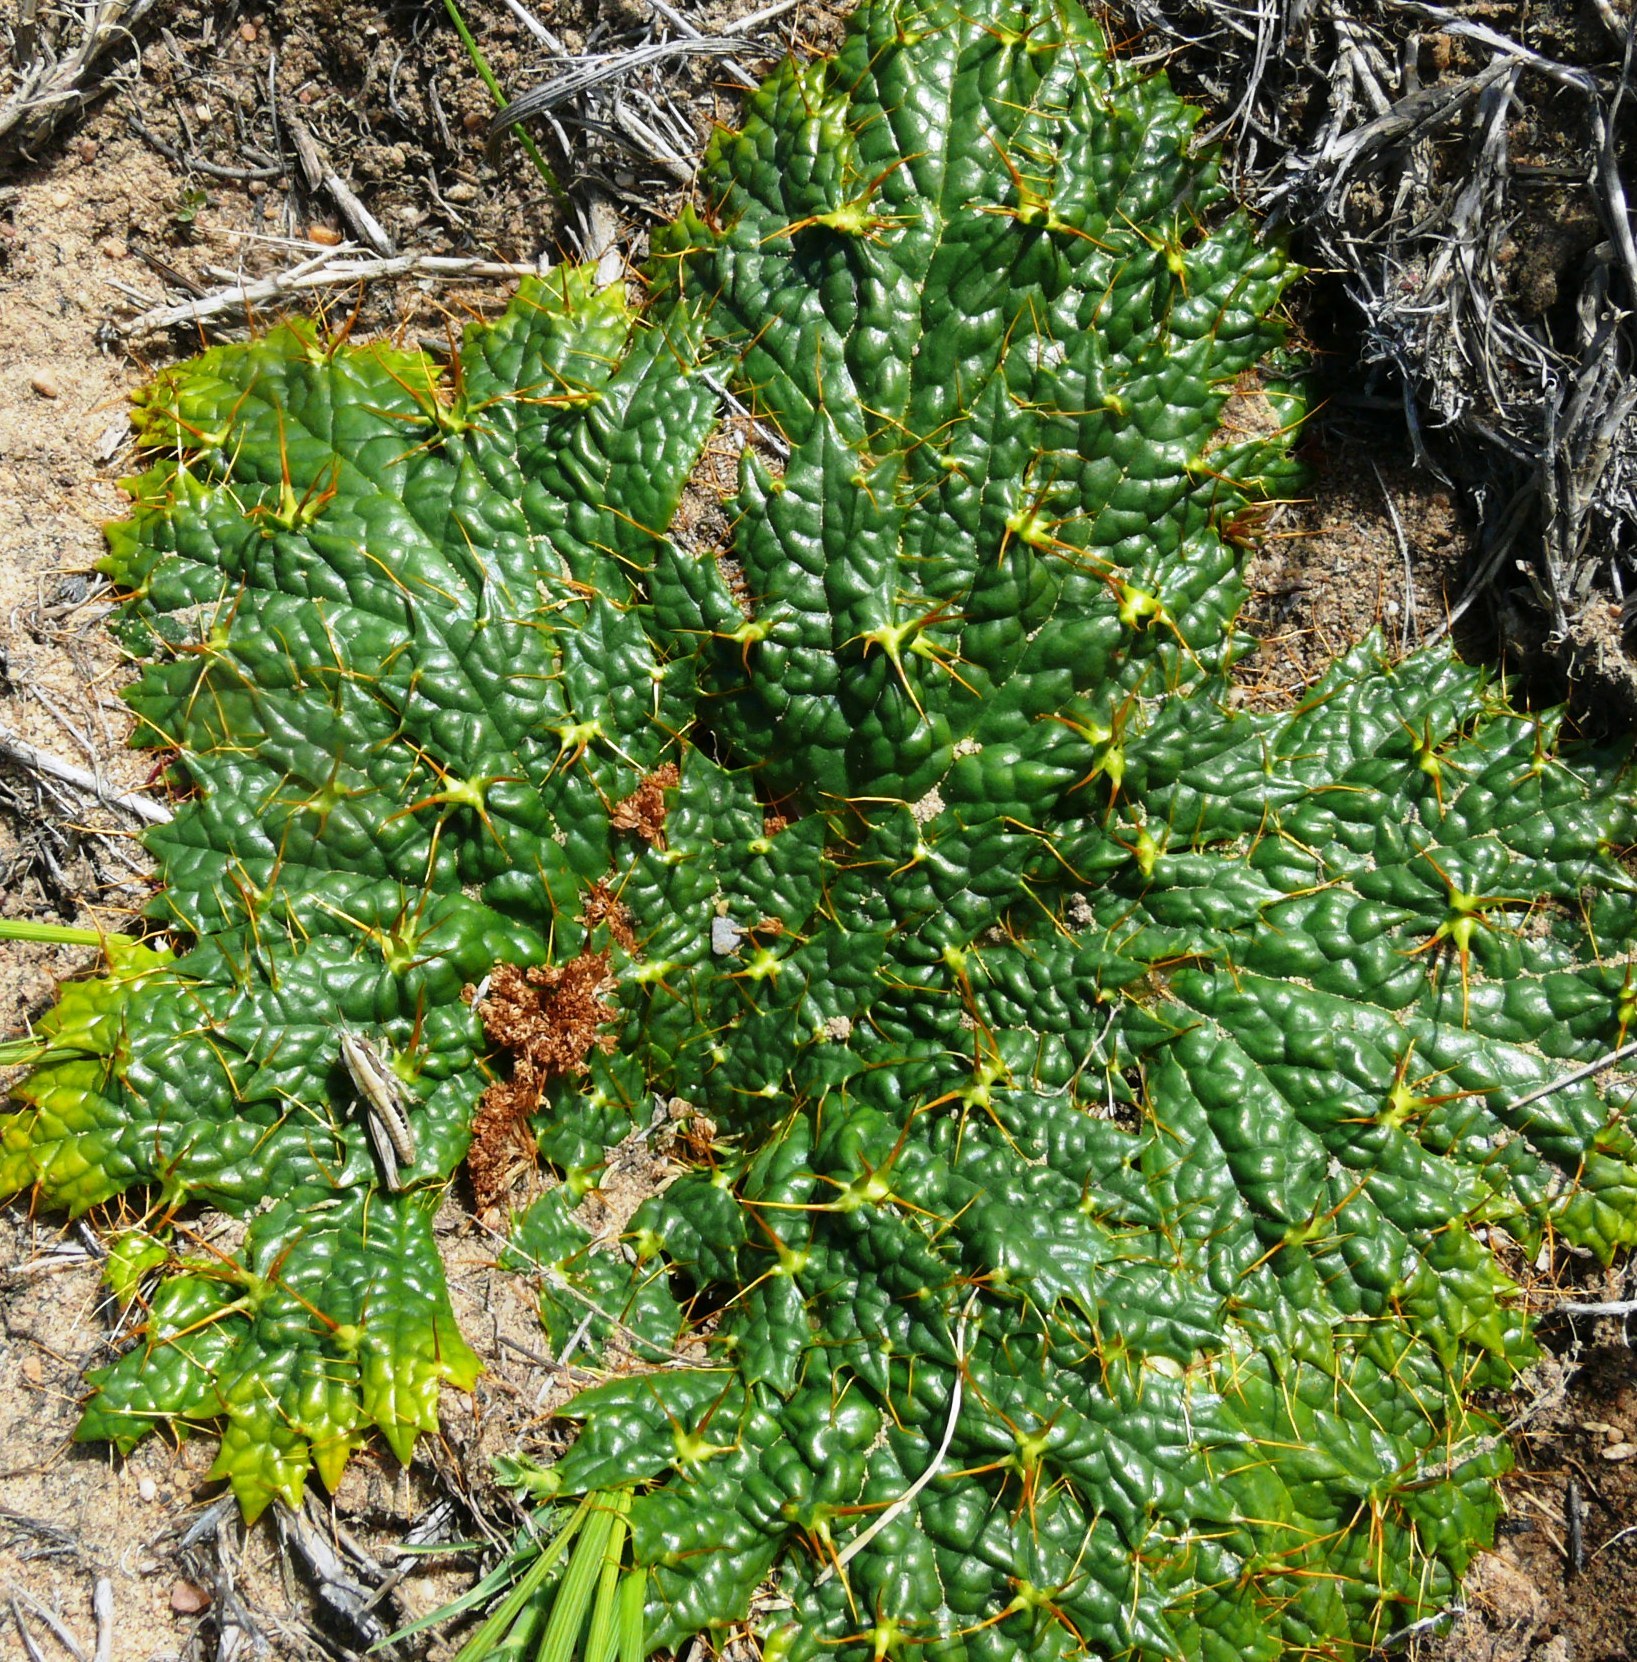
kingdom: Plantae
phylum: Tracheophyta
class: Magnoliopsida
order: Apiales
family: Apiaceae
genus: Arctopus
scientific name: Arctopus echinatus
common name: Platdoring
